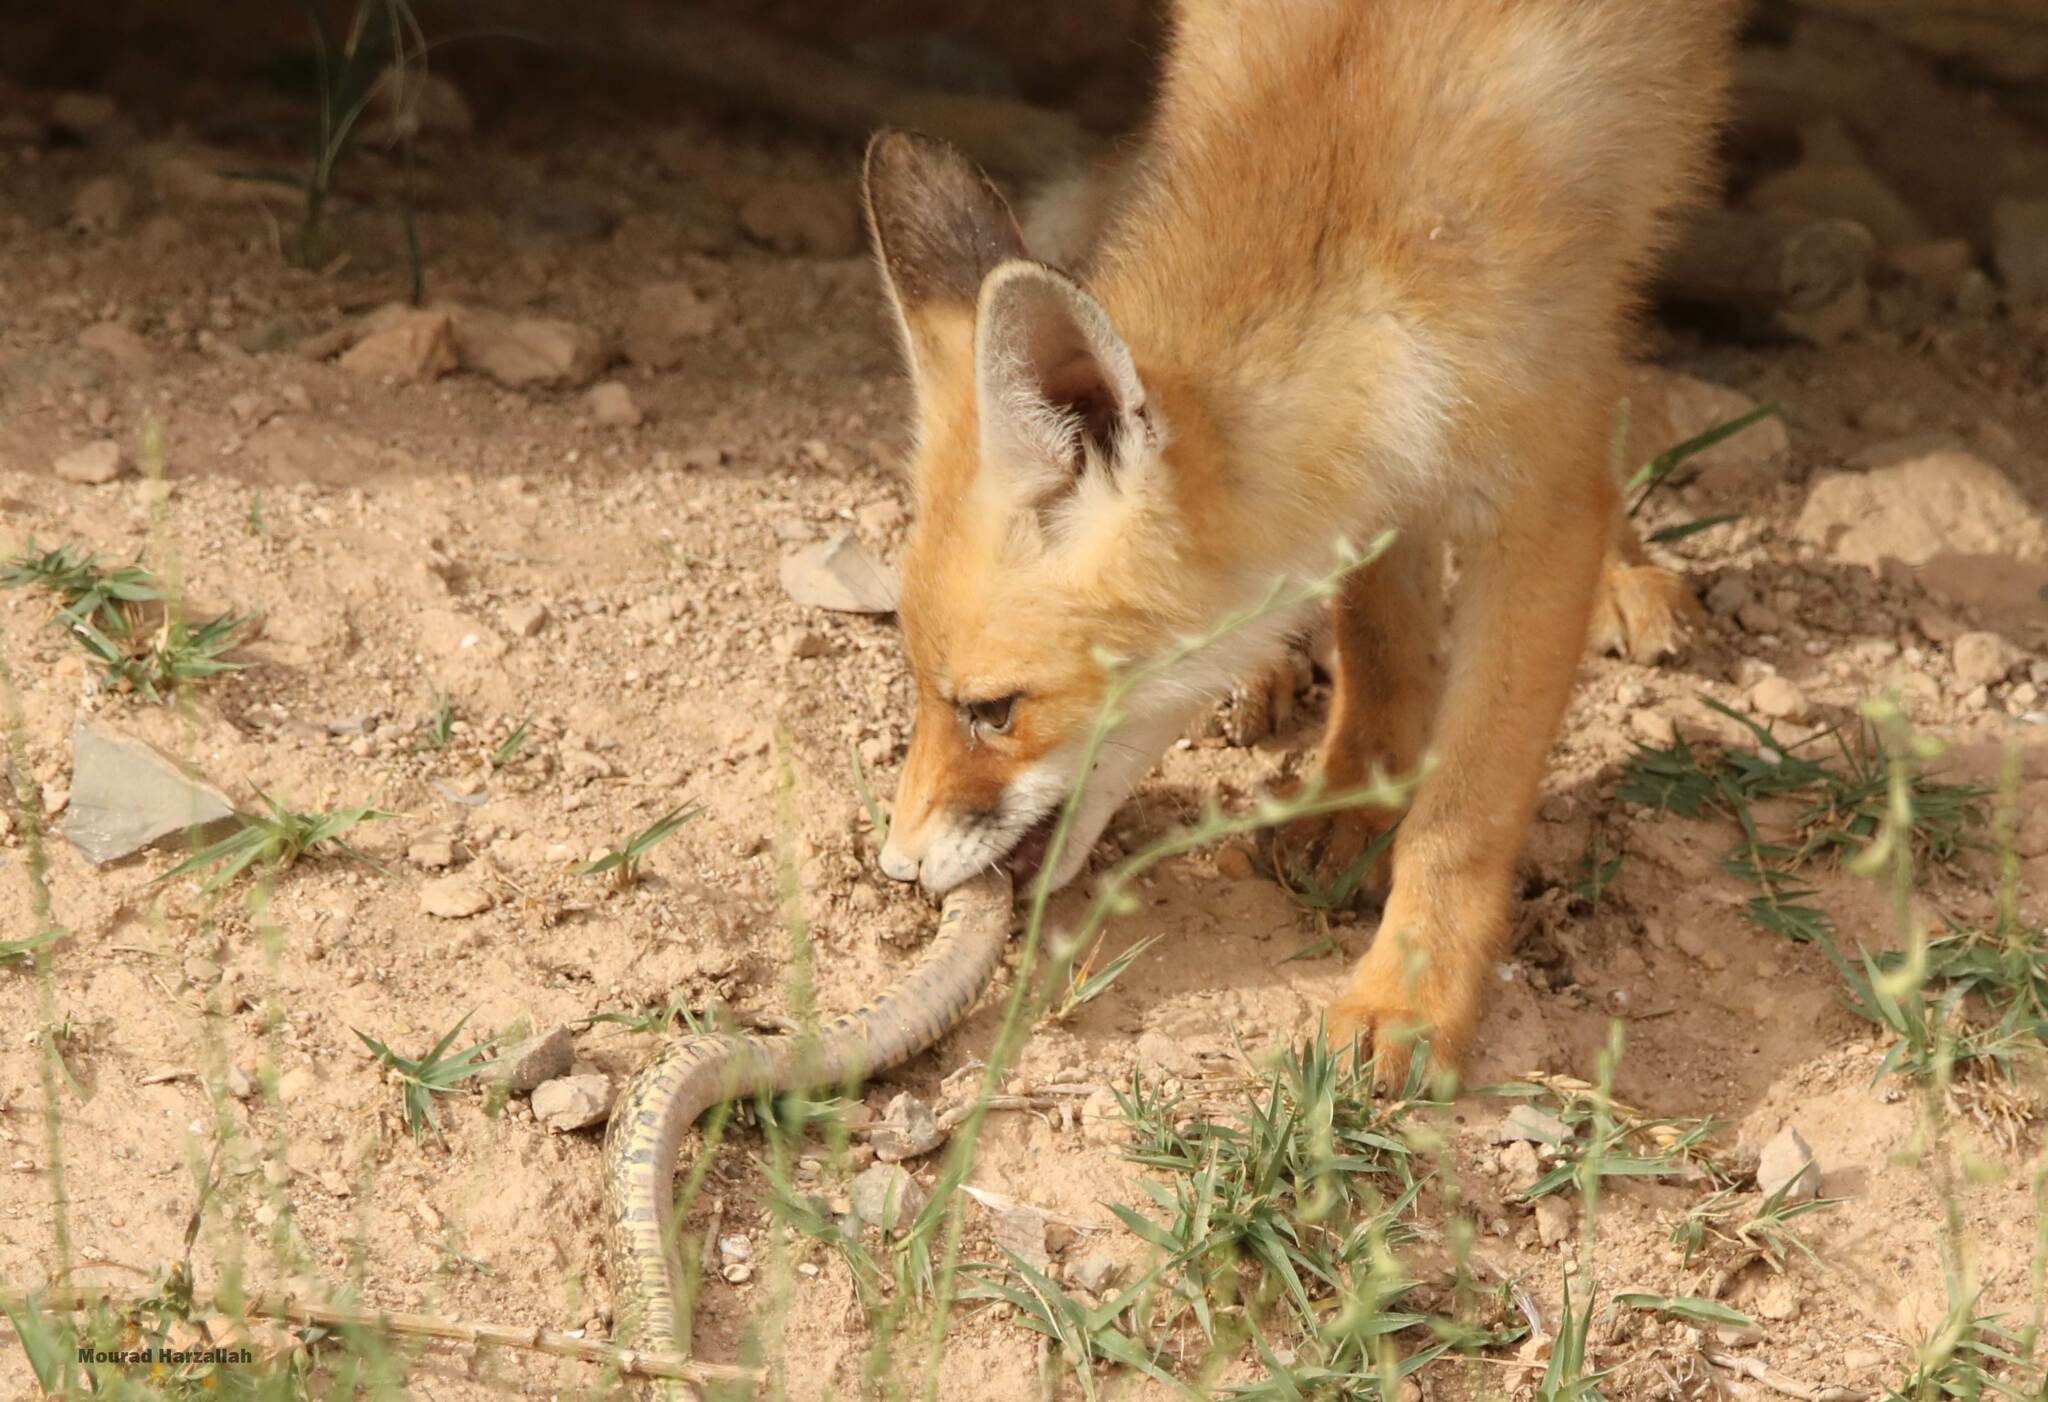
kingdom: Animalia
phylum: Chordata
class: Mammalia
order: Carnivora
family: Canidae
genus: Vulpes
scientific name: Vulpes vulpes
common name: Red fox
